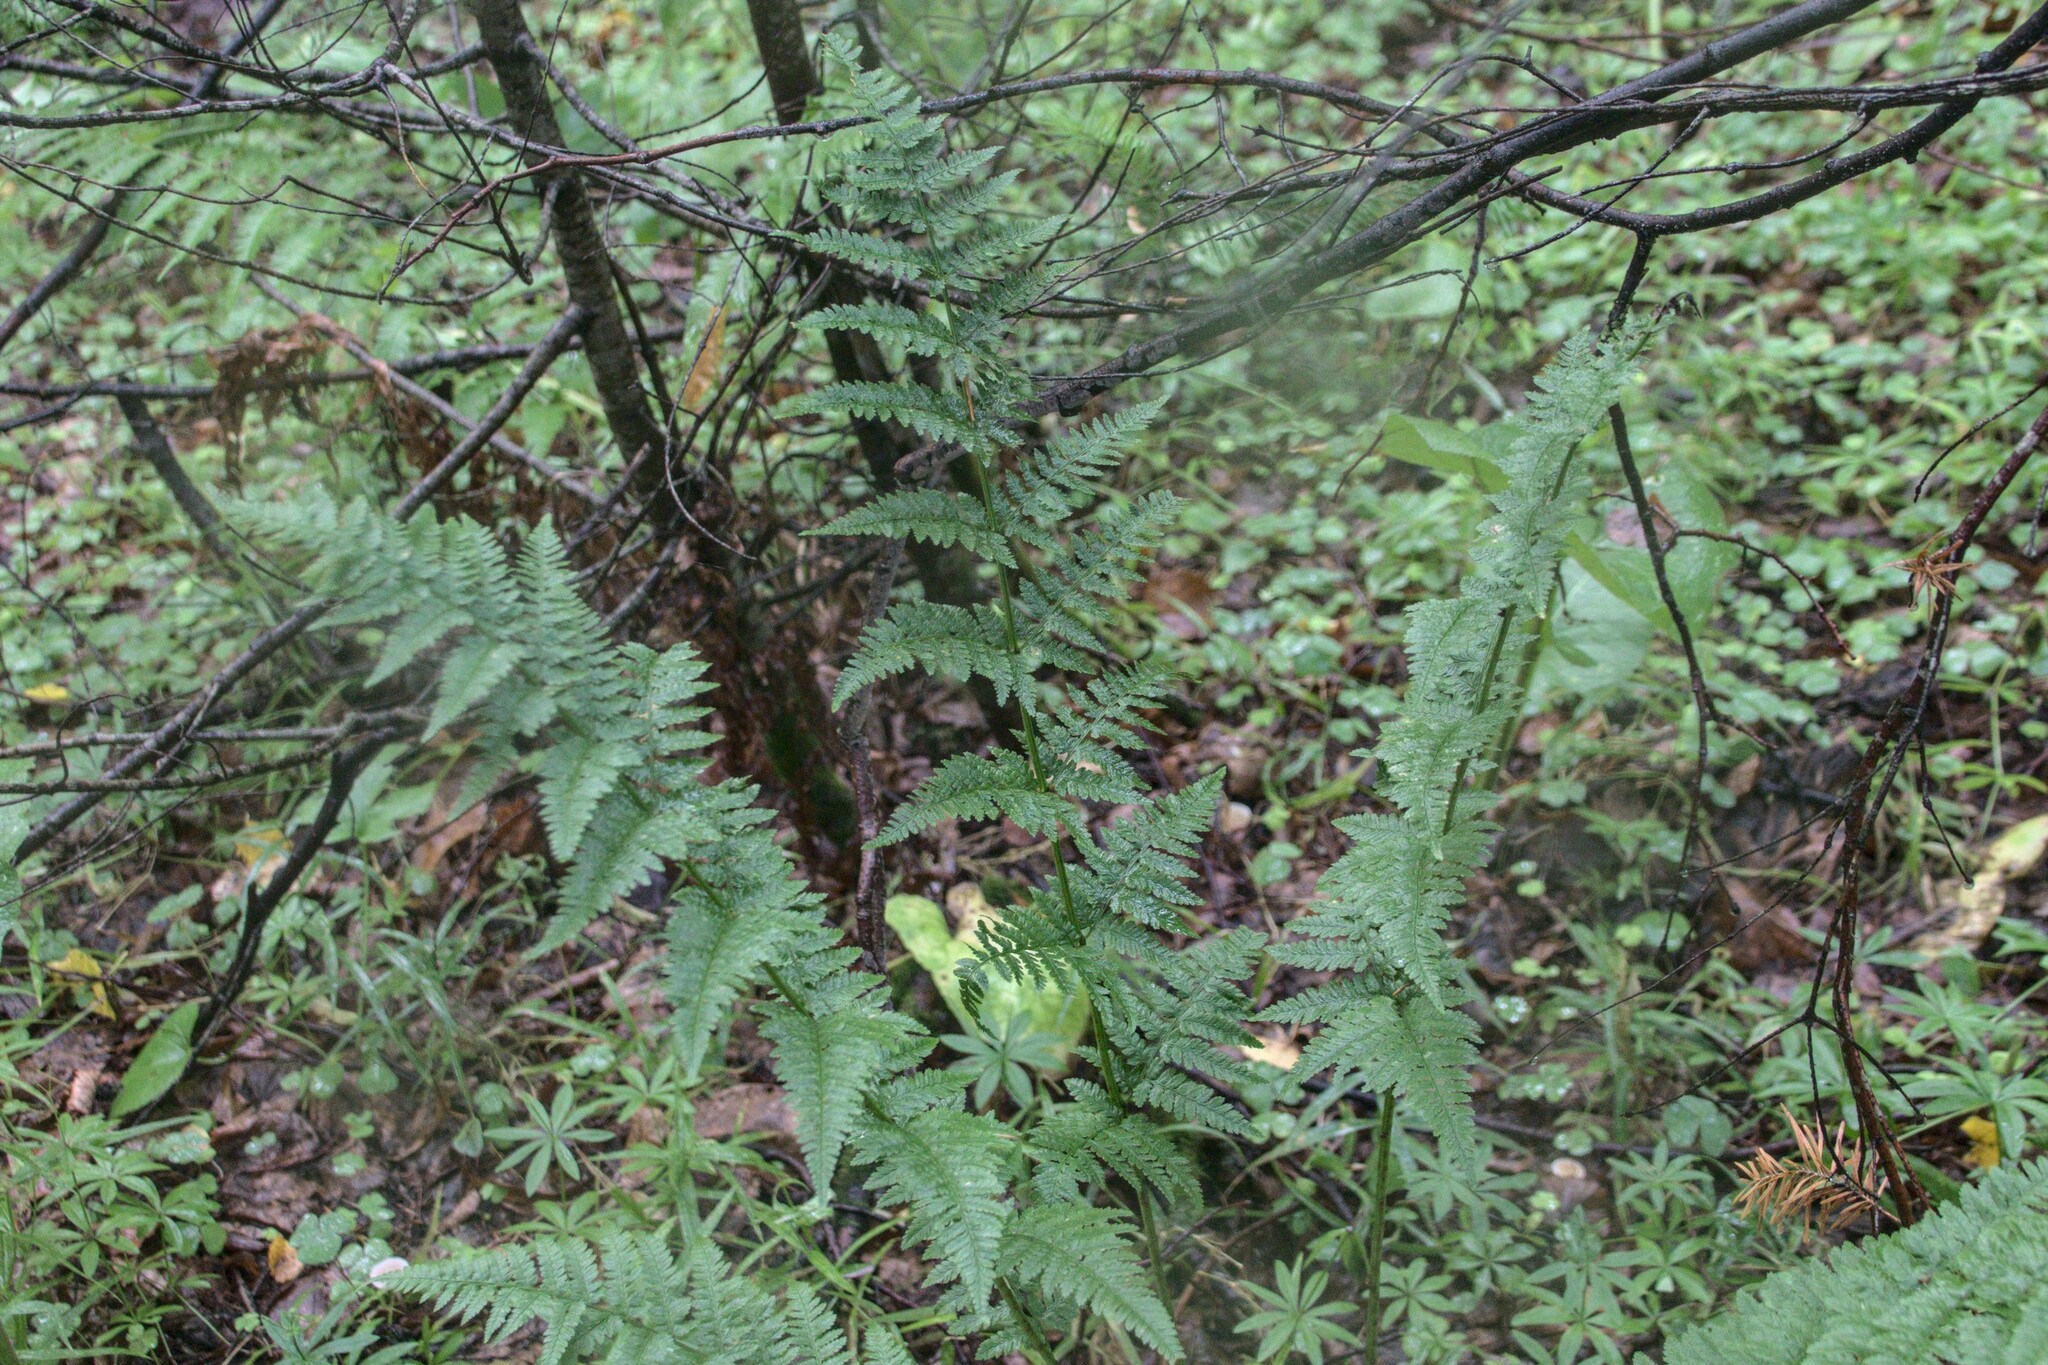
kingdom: Plantae
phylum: Tracheophyta
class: Polypodiopsida
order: Polypodiales
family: Dryopteridaceae
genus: Dryopteris
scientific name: Dryopteris carthusiana
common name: Narrow buckler-fern
